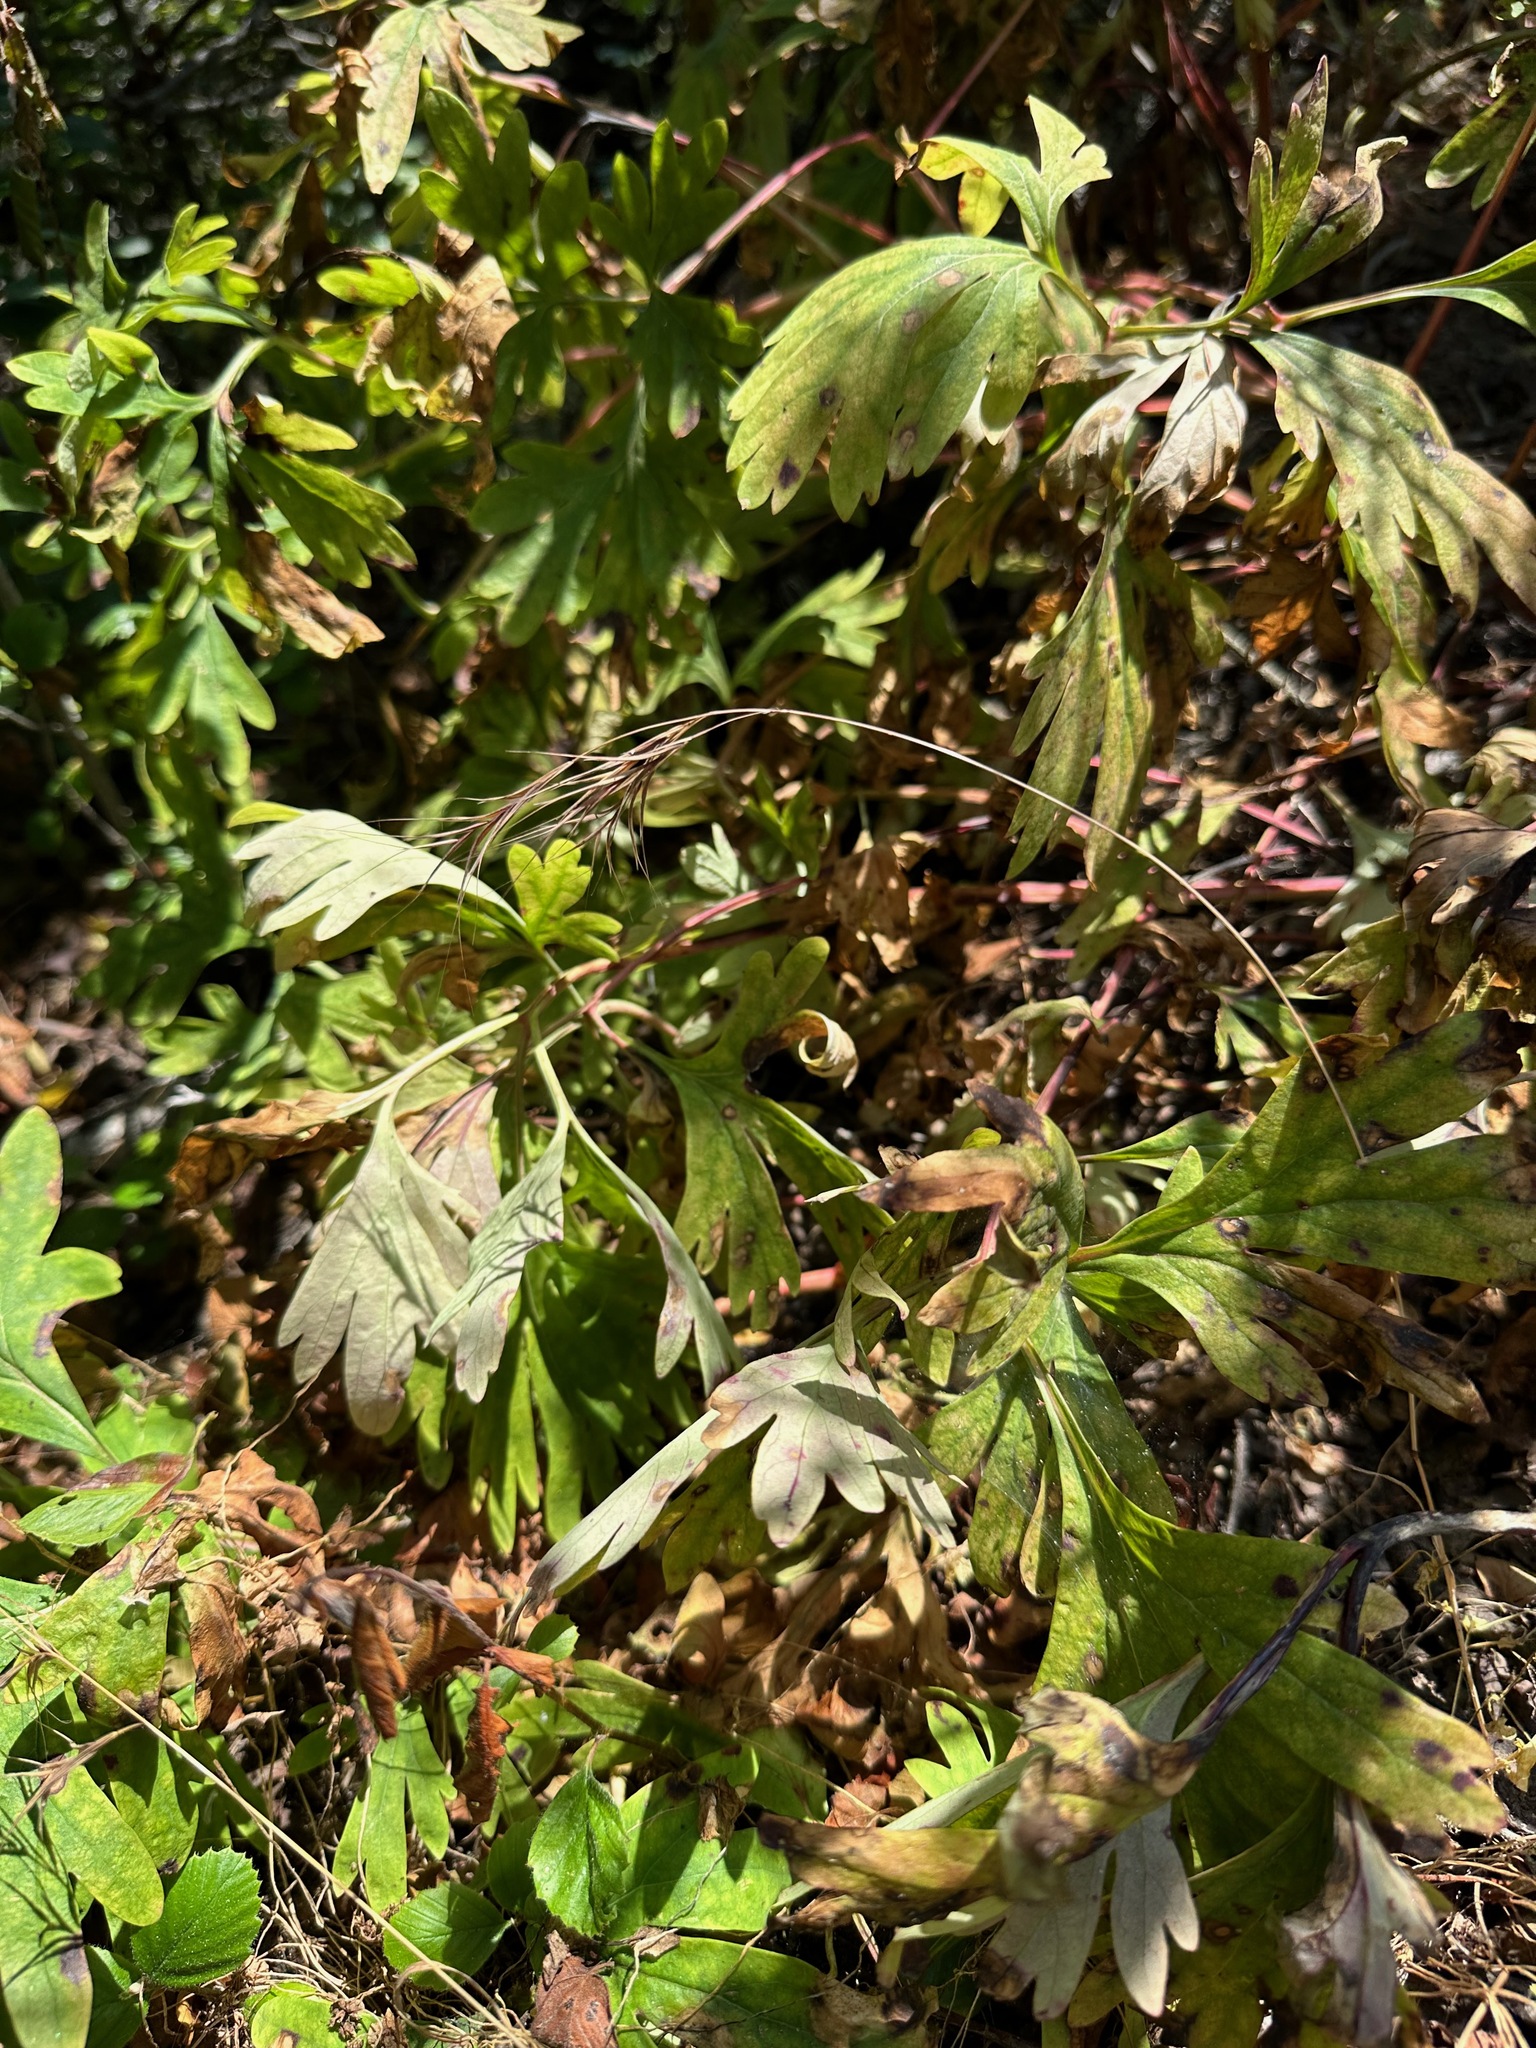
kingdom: Plantae
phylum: Tracheophyta
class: Magnoliopsida
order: Saxifragales
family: Paeoniaceae
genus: Paeonia
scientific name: Paeonia californica
